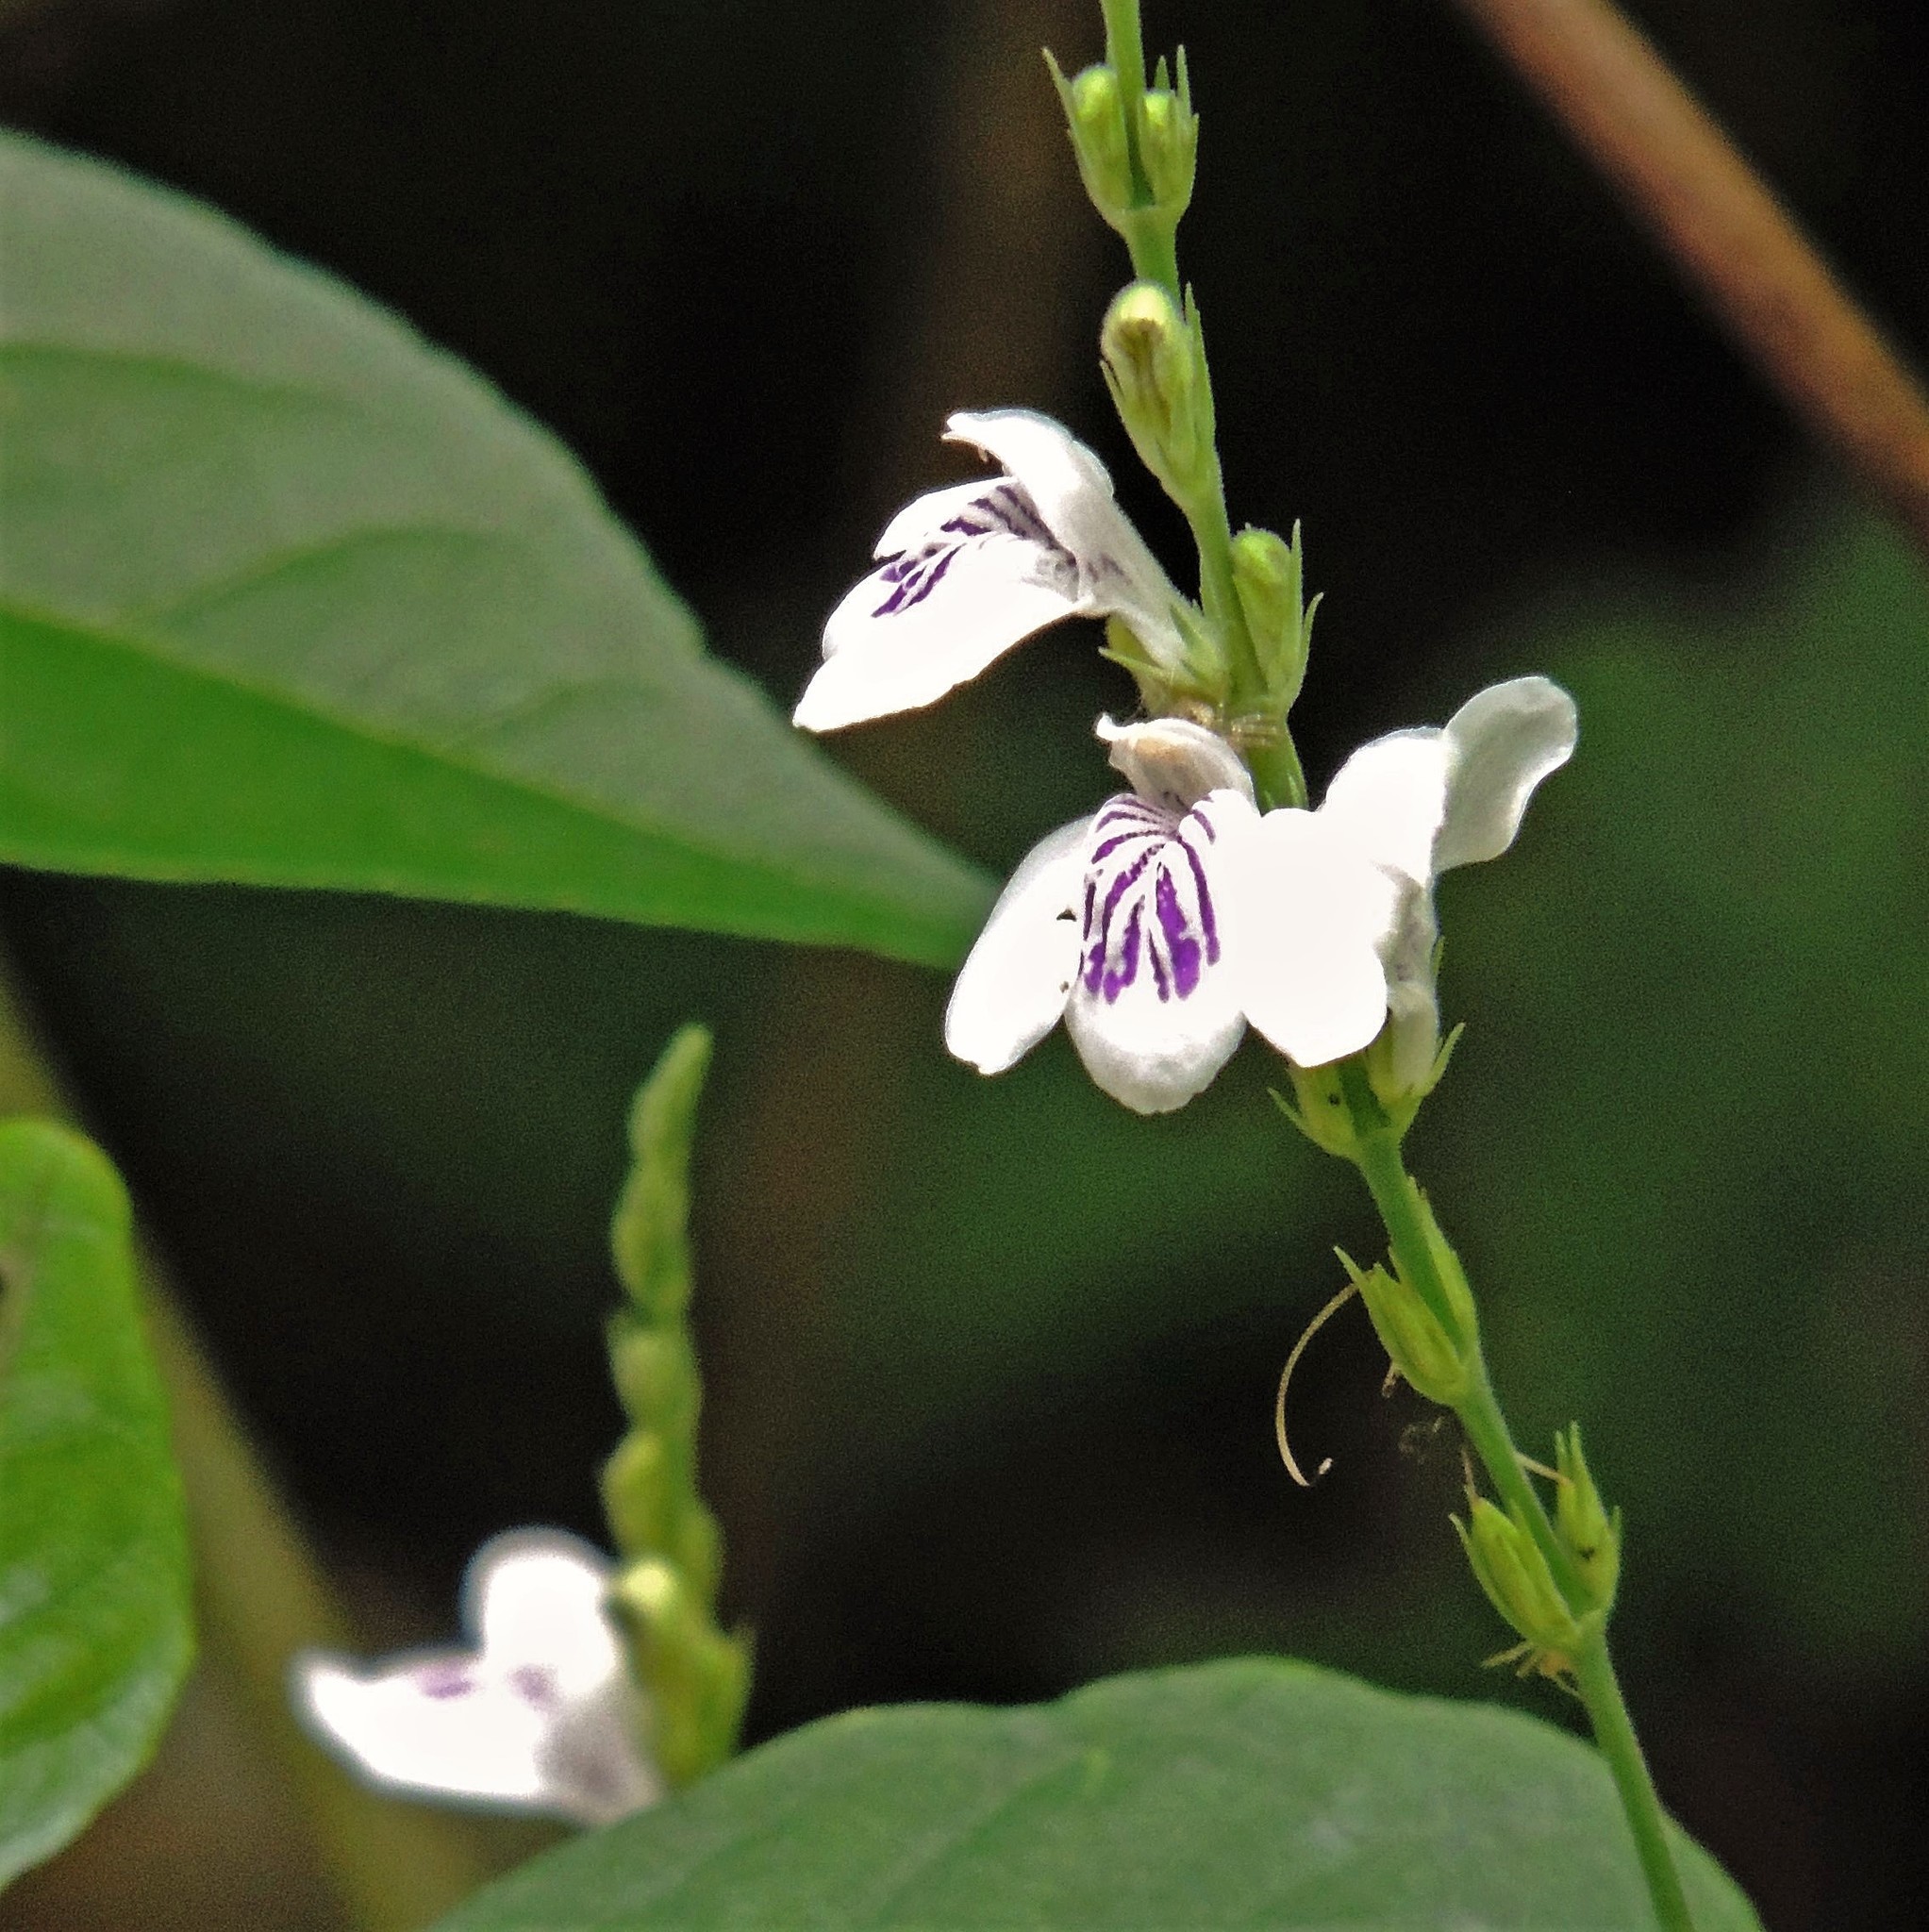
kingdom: Plantae
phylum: Tracheophyta
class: Magnoliopsida
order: Lamiales
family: Acanthaceae
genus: Justicia
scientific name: Justicia comata
